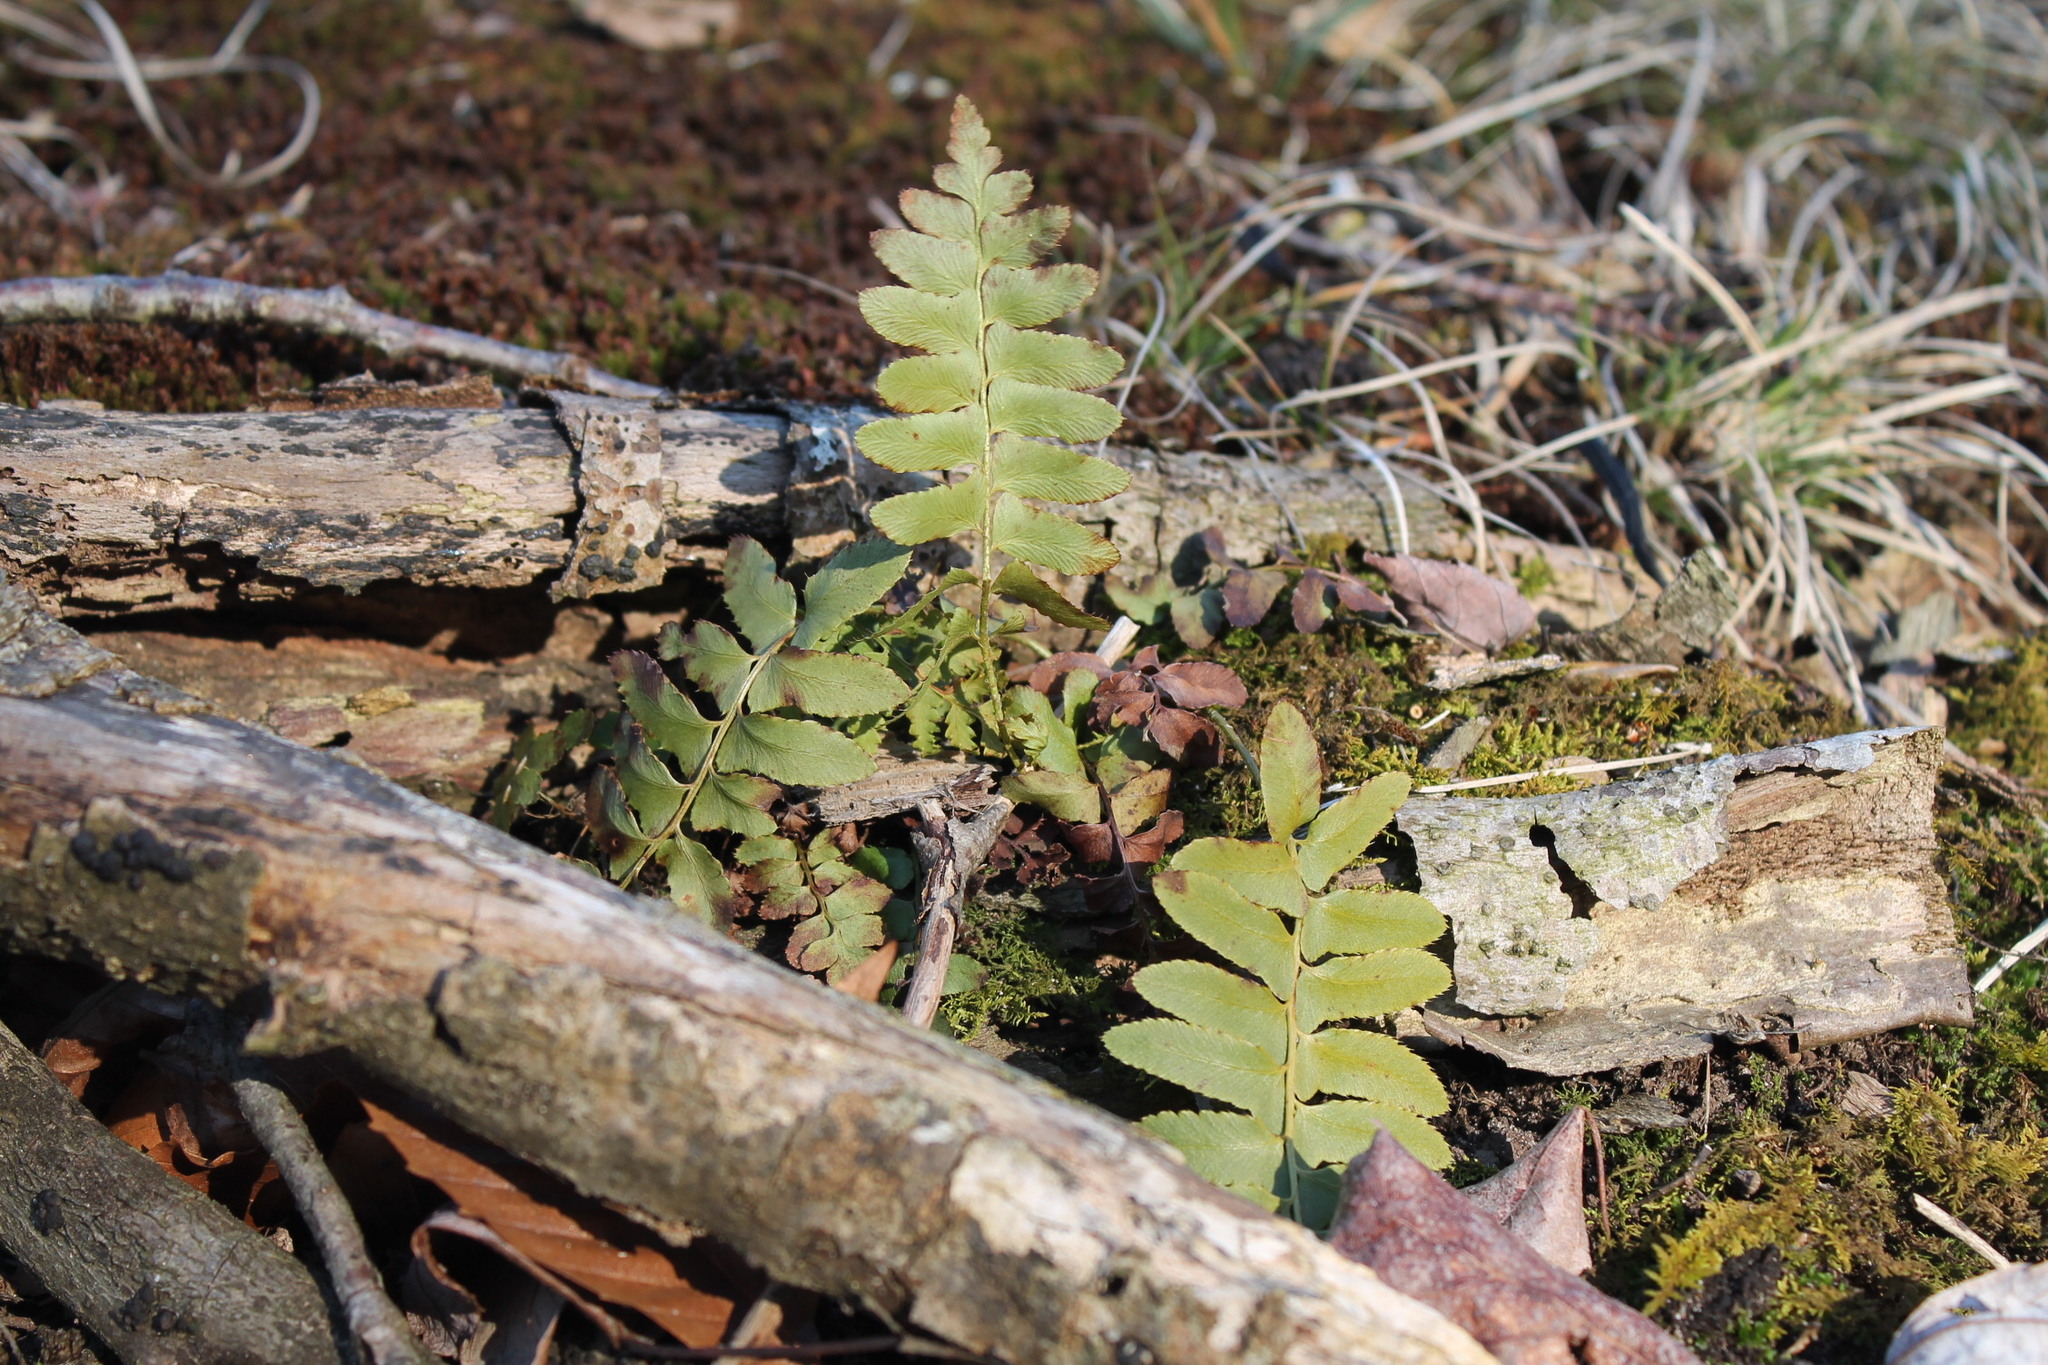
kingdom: Plantae
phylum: Tracheophyta
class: Polypodiopsida
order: Polypodiales
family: Dryopteridaceae
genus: Polystichum
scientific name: Polystichum acrostichoides
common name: Christmas fern
